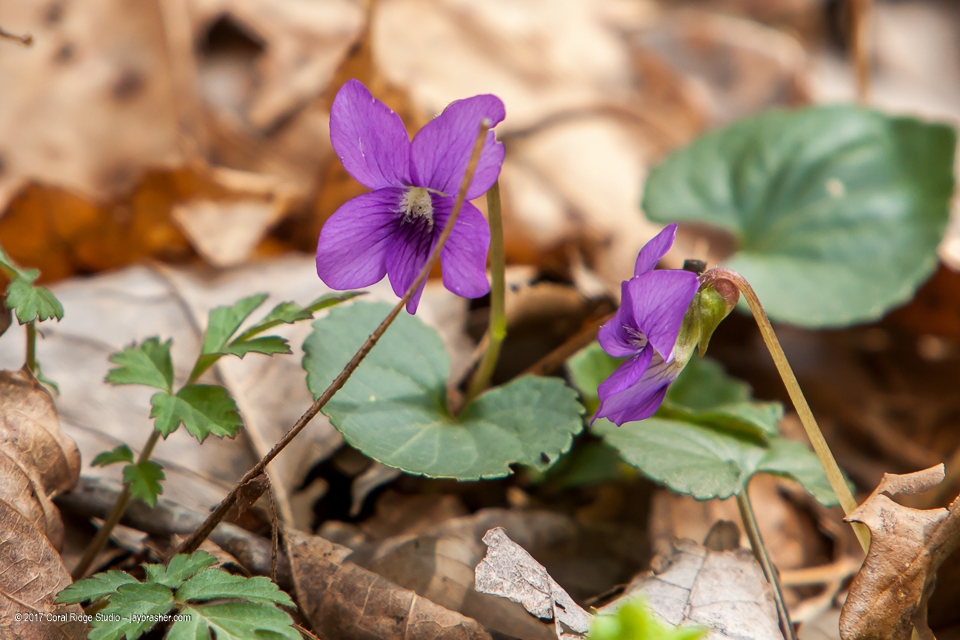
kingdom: Plantae
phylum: Tracheophyta
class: Magnoliopsida
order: Malpighiales
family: Violaceae
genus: Viola
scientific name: Viola sororia
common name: Dooryard violet
